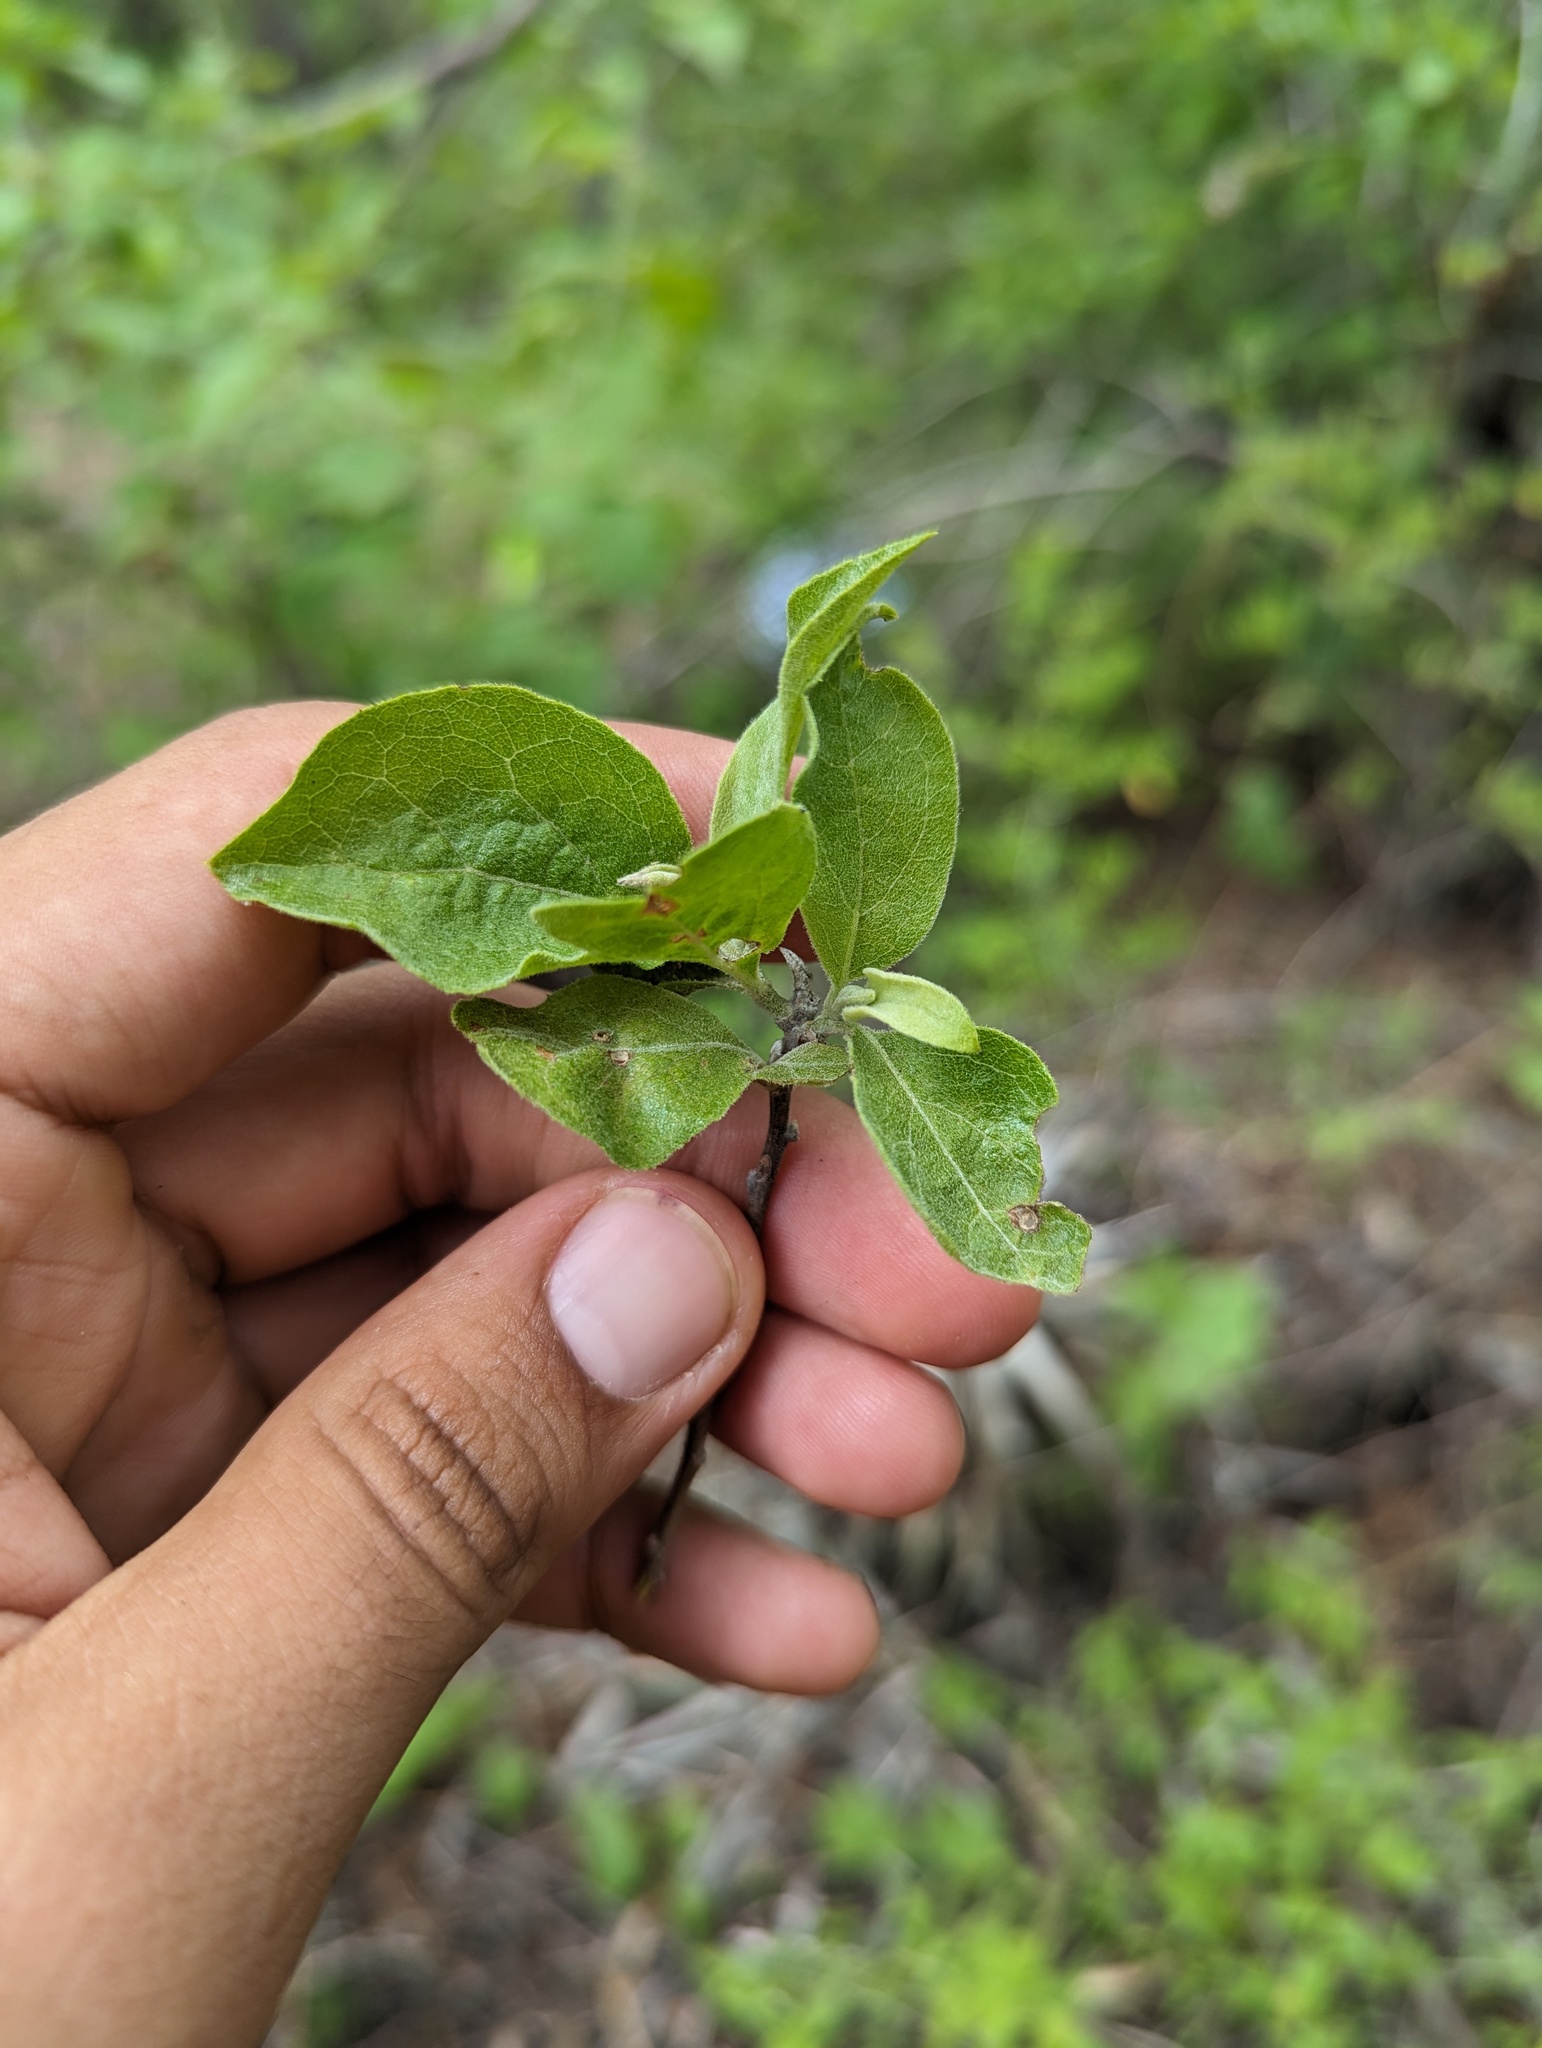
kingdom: Plantae
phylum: Tracheophyta
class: Magnoliopsida
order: Asterales
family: Asteraceae
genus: Nahuatlea
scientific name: Nahuatlea arborescens
